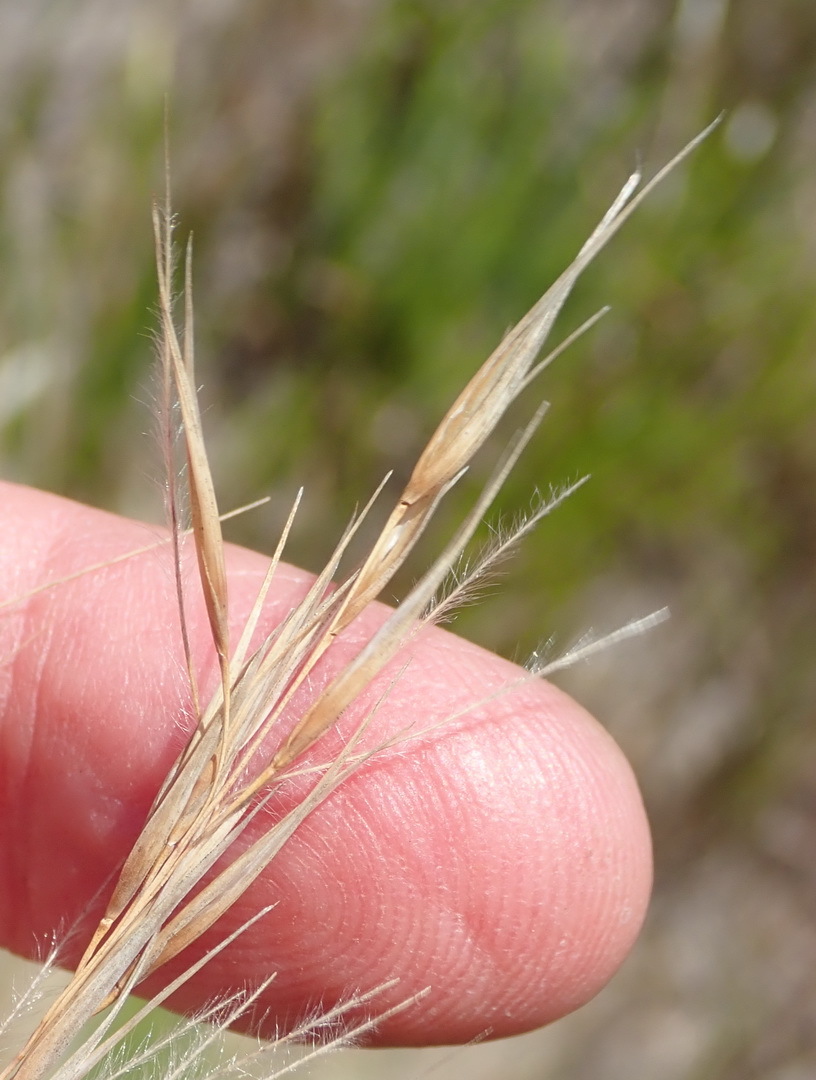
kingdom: Plantae
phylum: Tracheophyta
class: Liliopsida
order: Poales
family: Poaceae
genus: Stipagrostis
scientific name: Stipagrostis zeyheri
